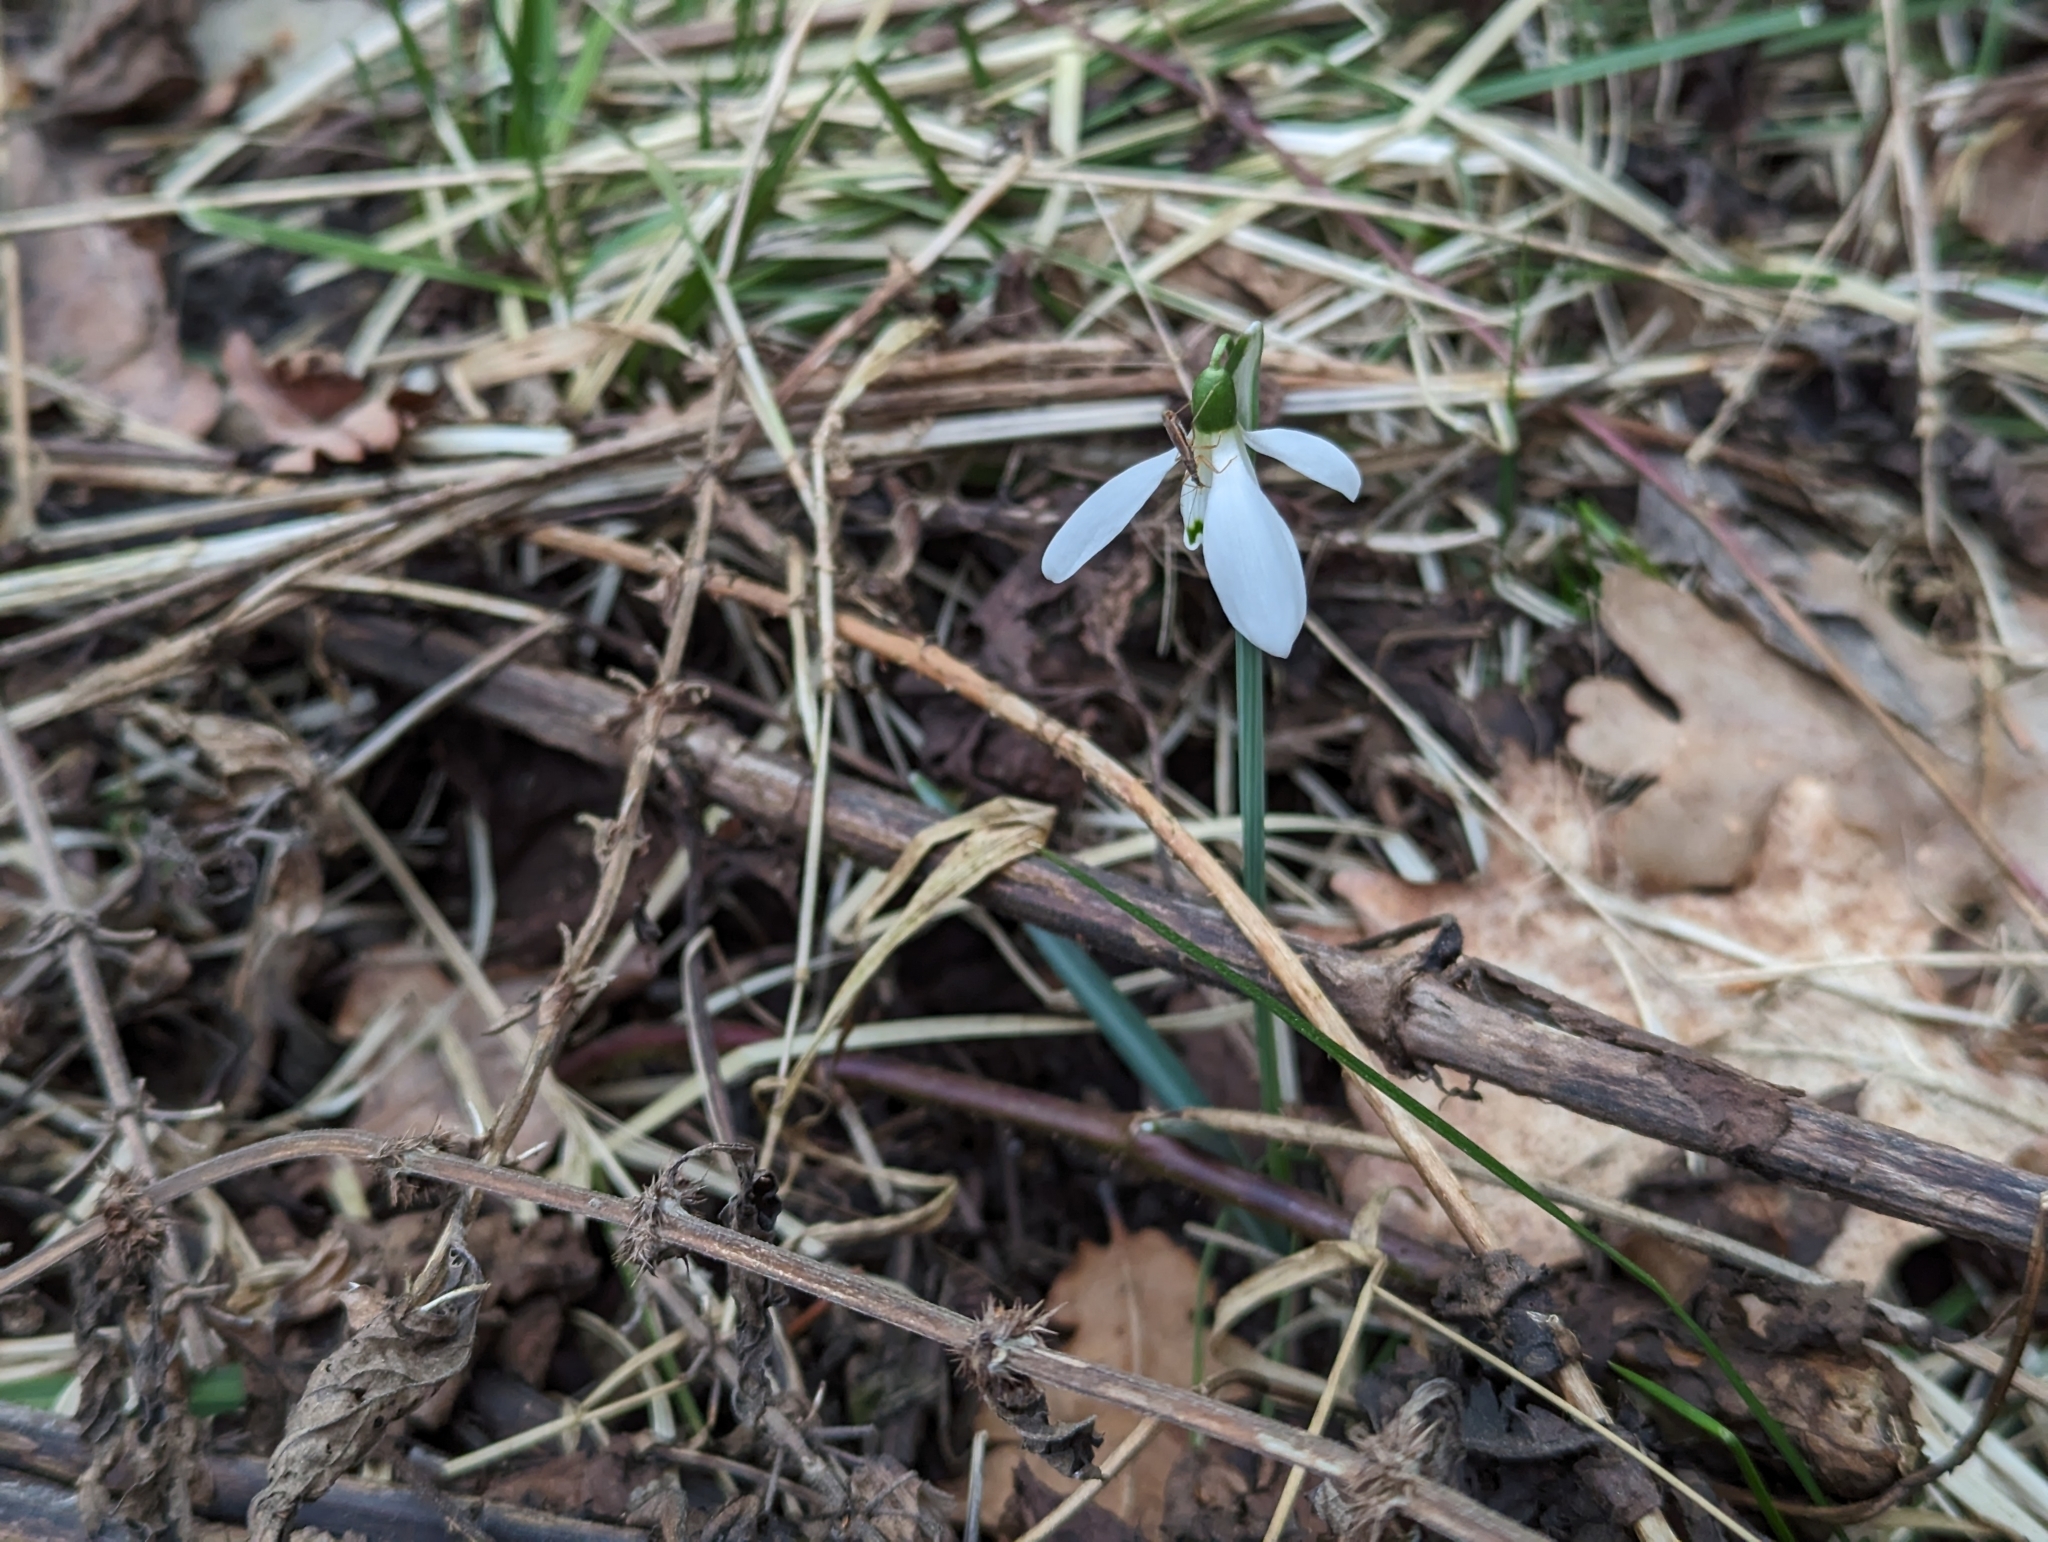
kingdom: Plantae
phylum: Tracheophyta
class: Liliopsida
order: Asparagales
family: Amaryllidaceae
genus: Galanthus
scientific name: Galanthus nivalis
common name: Snowdrop
